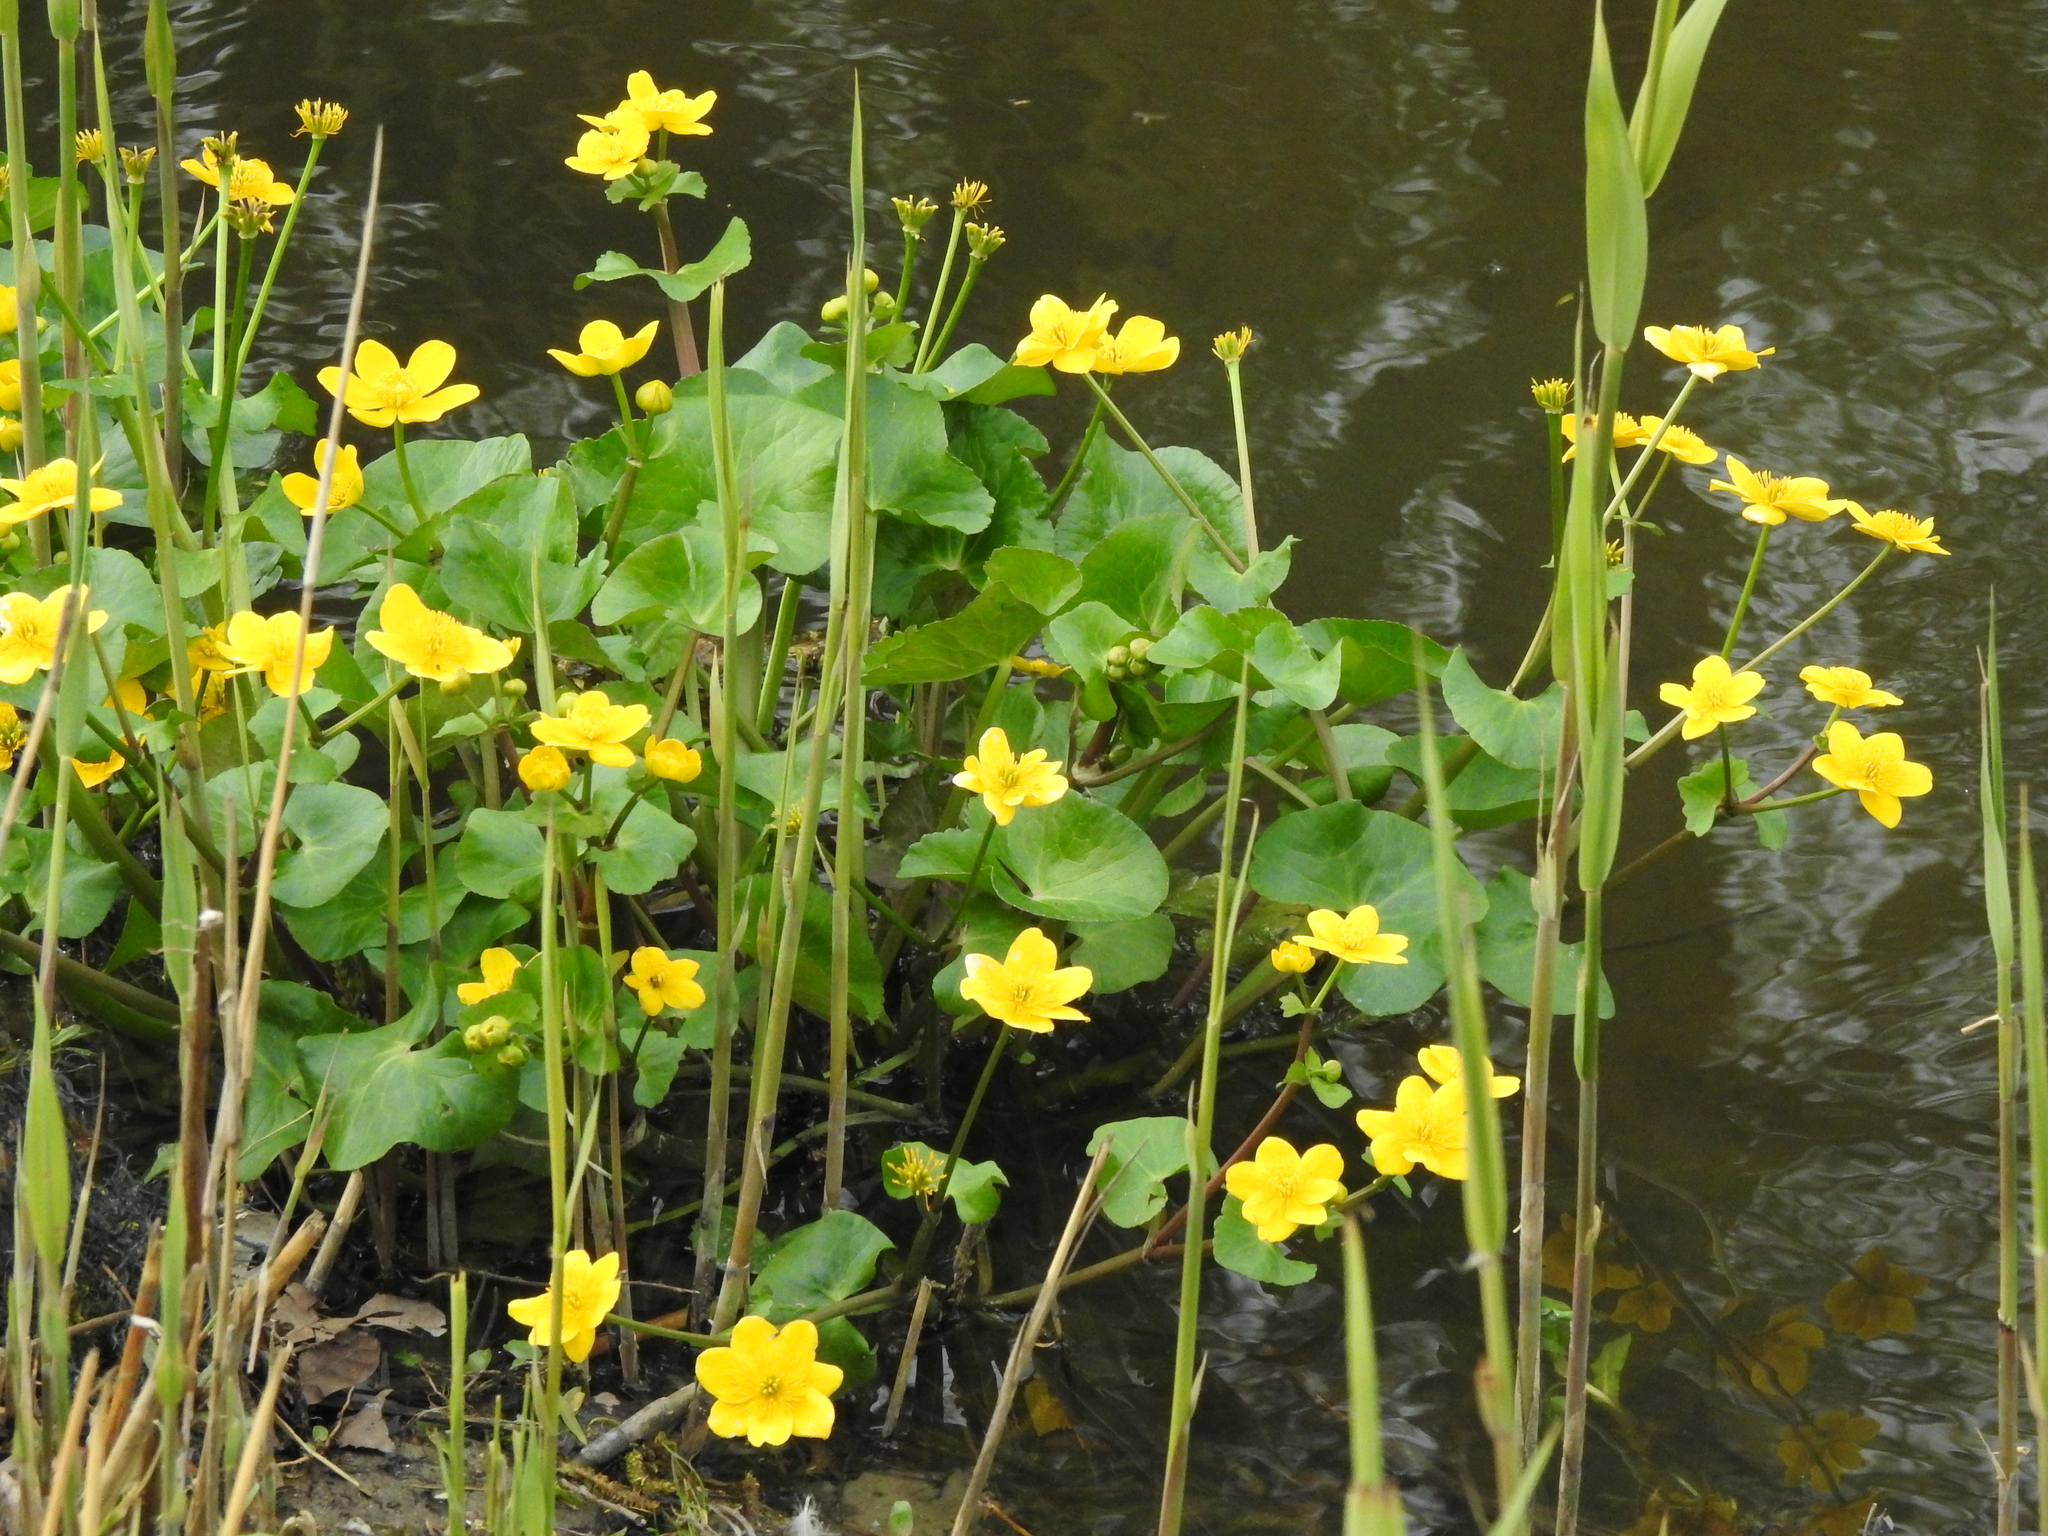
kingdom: Plantae
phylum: Tracheophyta
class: Magnoliopsida
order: Ranunculales
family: Ranunculaceae
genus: Caltha
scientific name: Caltha palustris
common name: Marsh marigold
